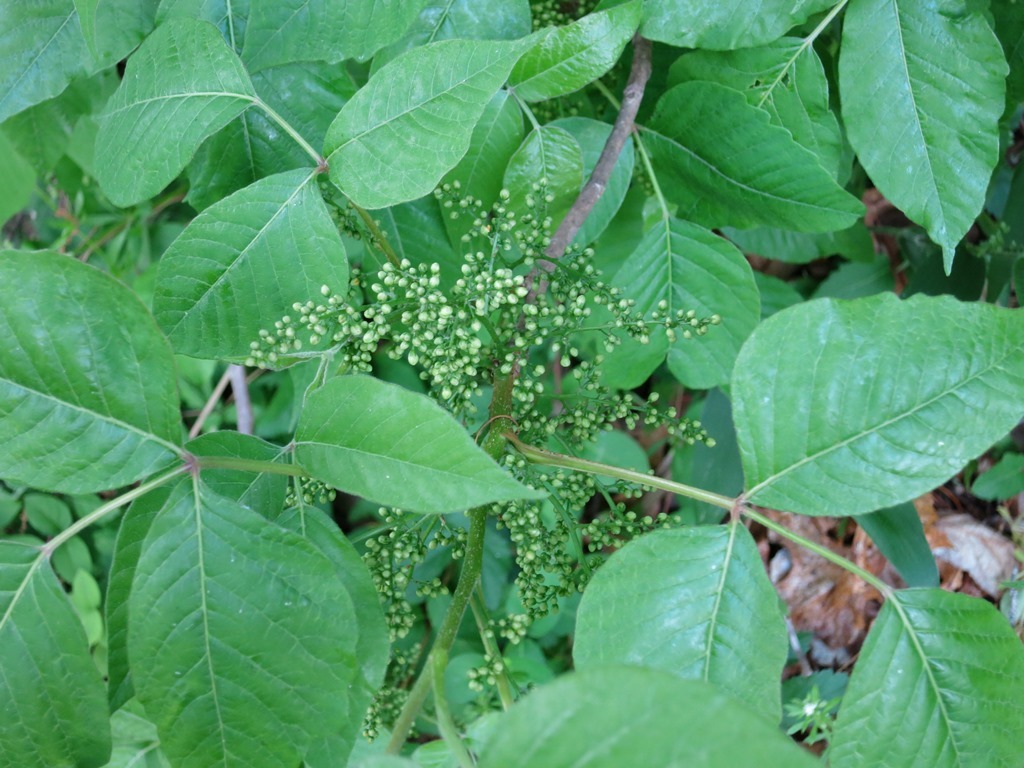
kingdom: Plantae
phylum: Tracheophyta
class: Magnoliopsida
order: Sapindales
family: Anacardiaceae
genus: Toxicodendron
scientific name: Toxicodendron radicans
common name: Poison ivy
